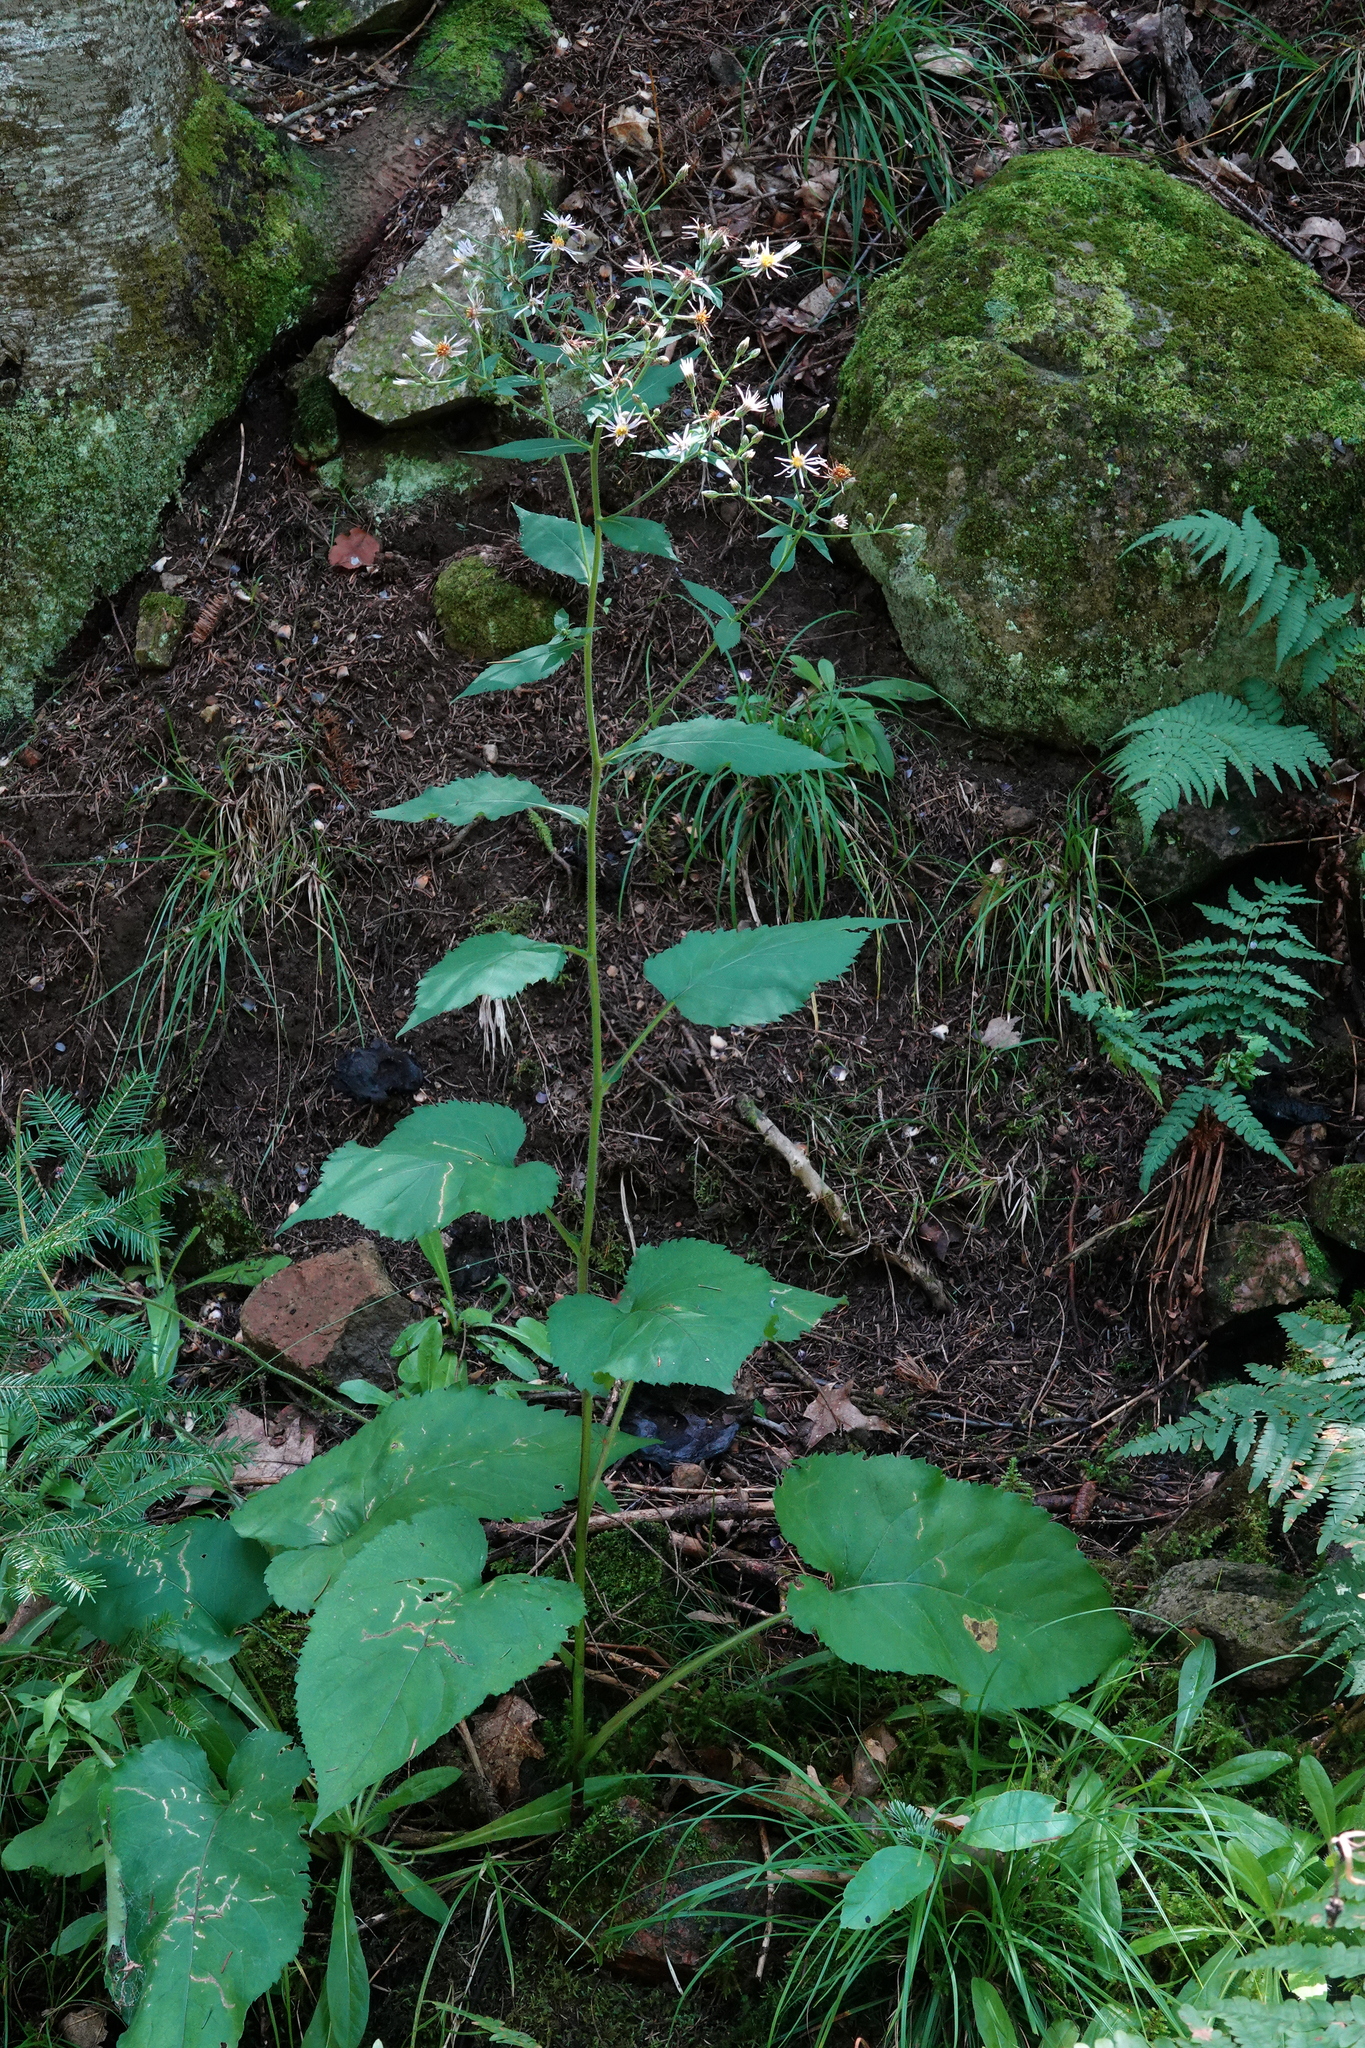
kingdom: Plantae
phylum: Tracheophyta
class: Magnoliopsida
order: Asterales
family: Asteraceae
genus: Eurybia
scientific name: Eurybia macrophylla
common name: Big-leaved aster
